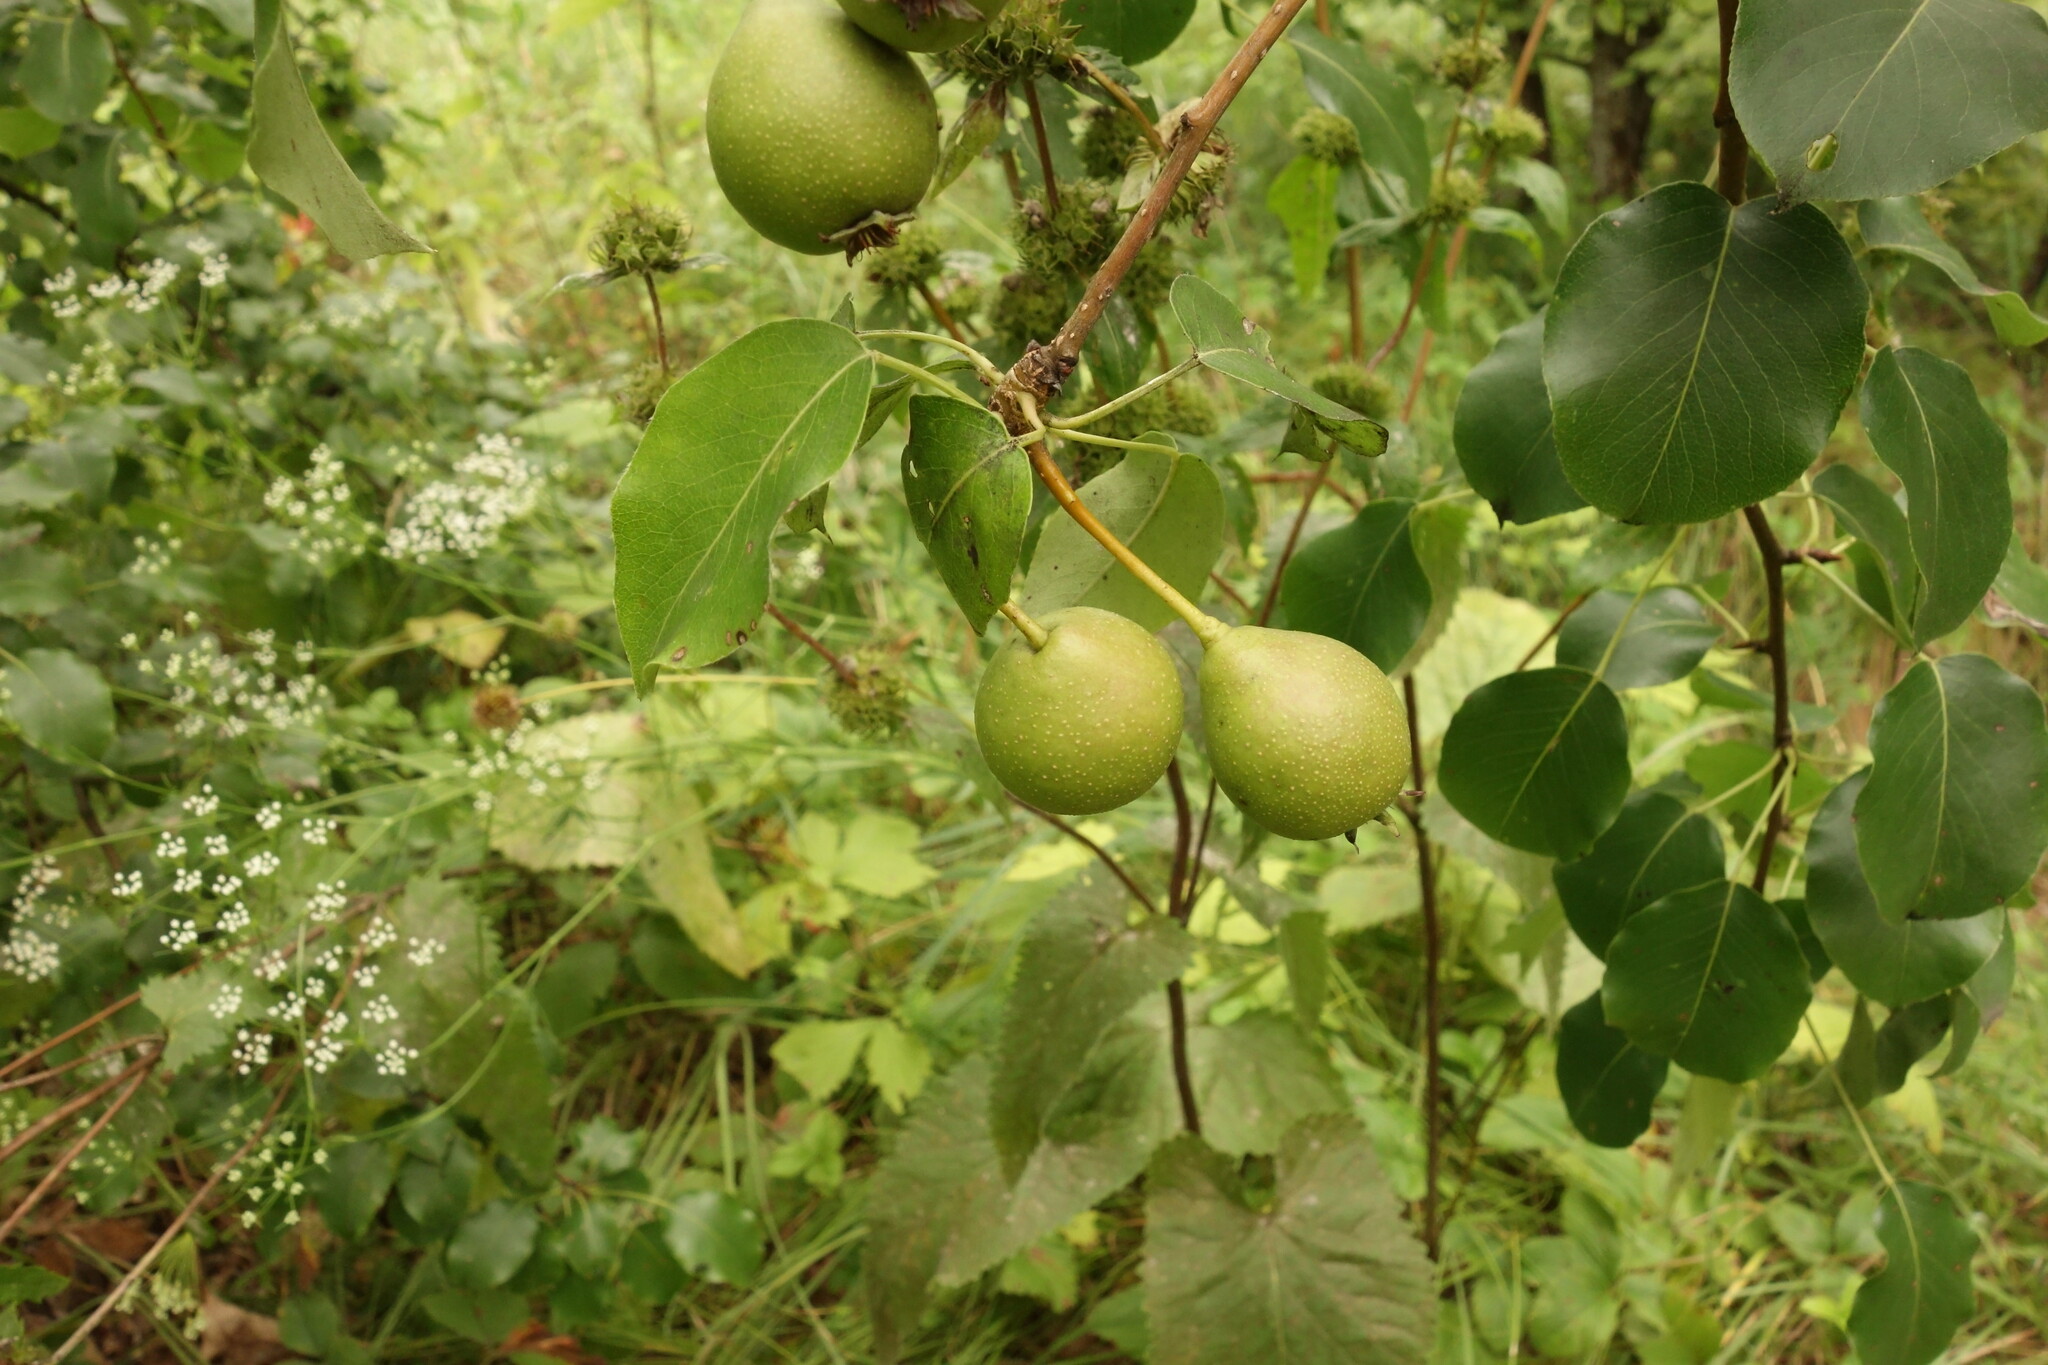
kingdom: Plantae
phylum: Tracheophyta
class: Magnoliopsida
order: Rosales
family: Rosaceae
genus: Pyrus
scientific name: Pyrus communis
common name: Pear
